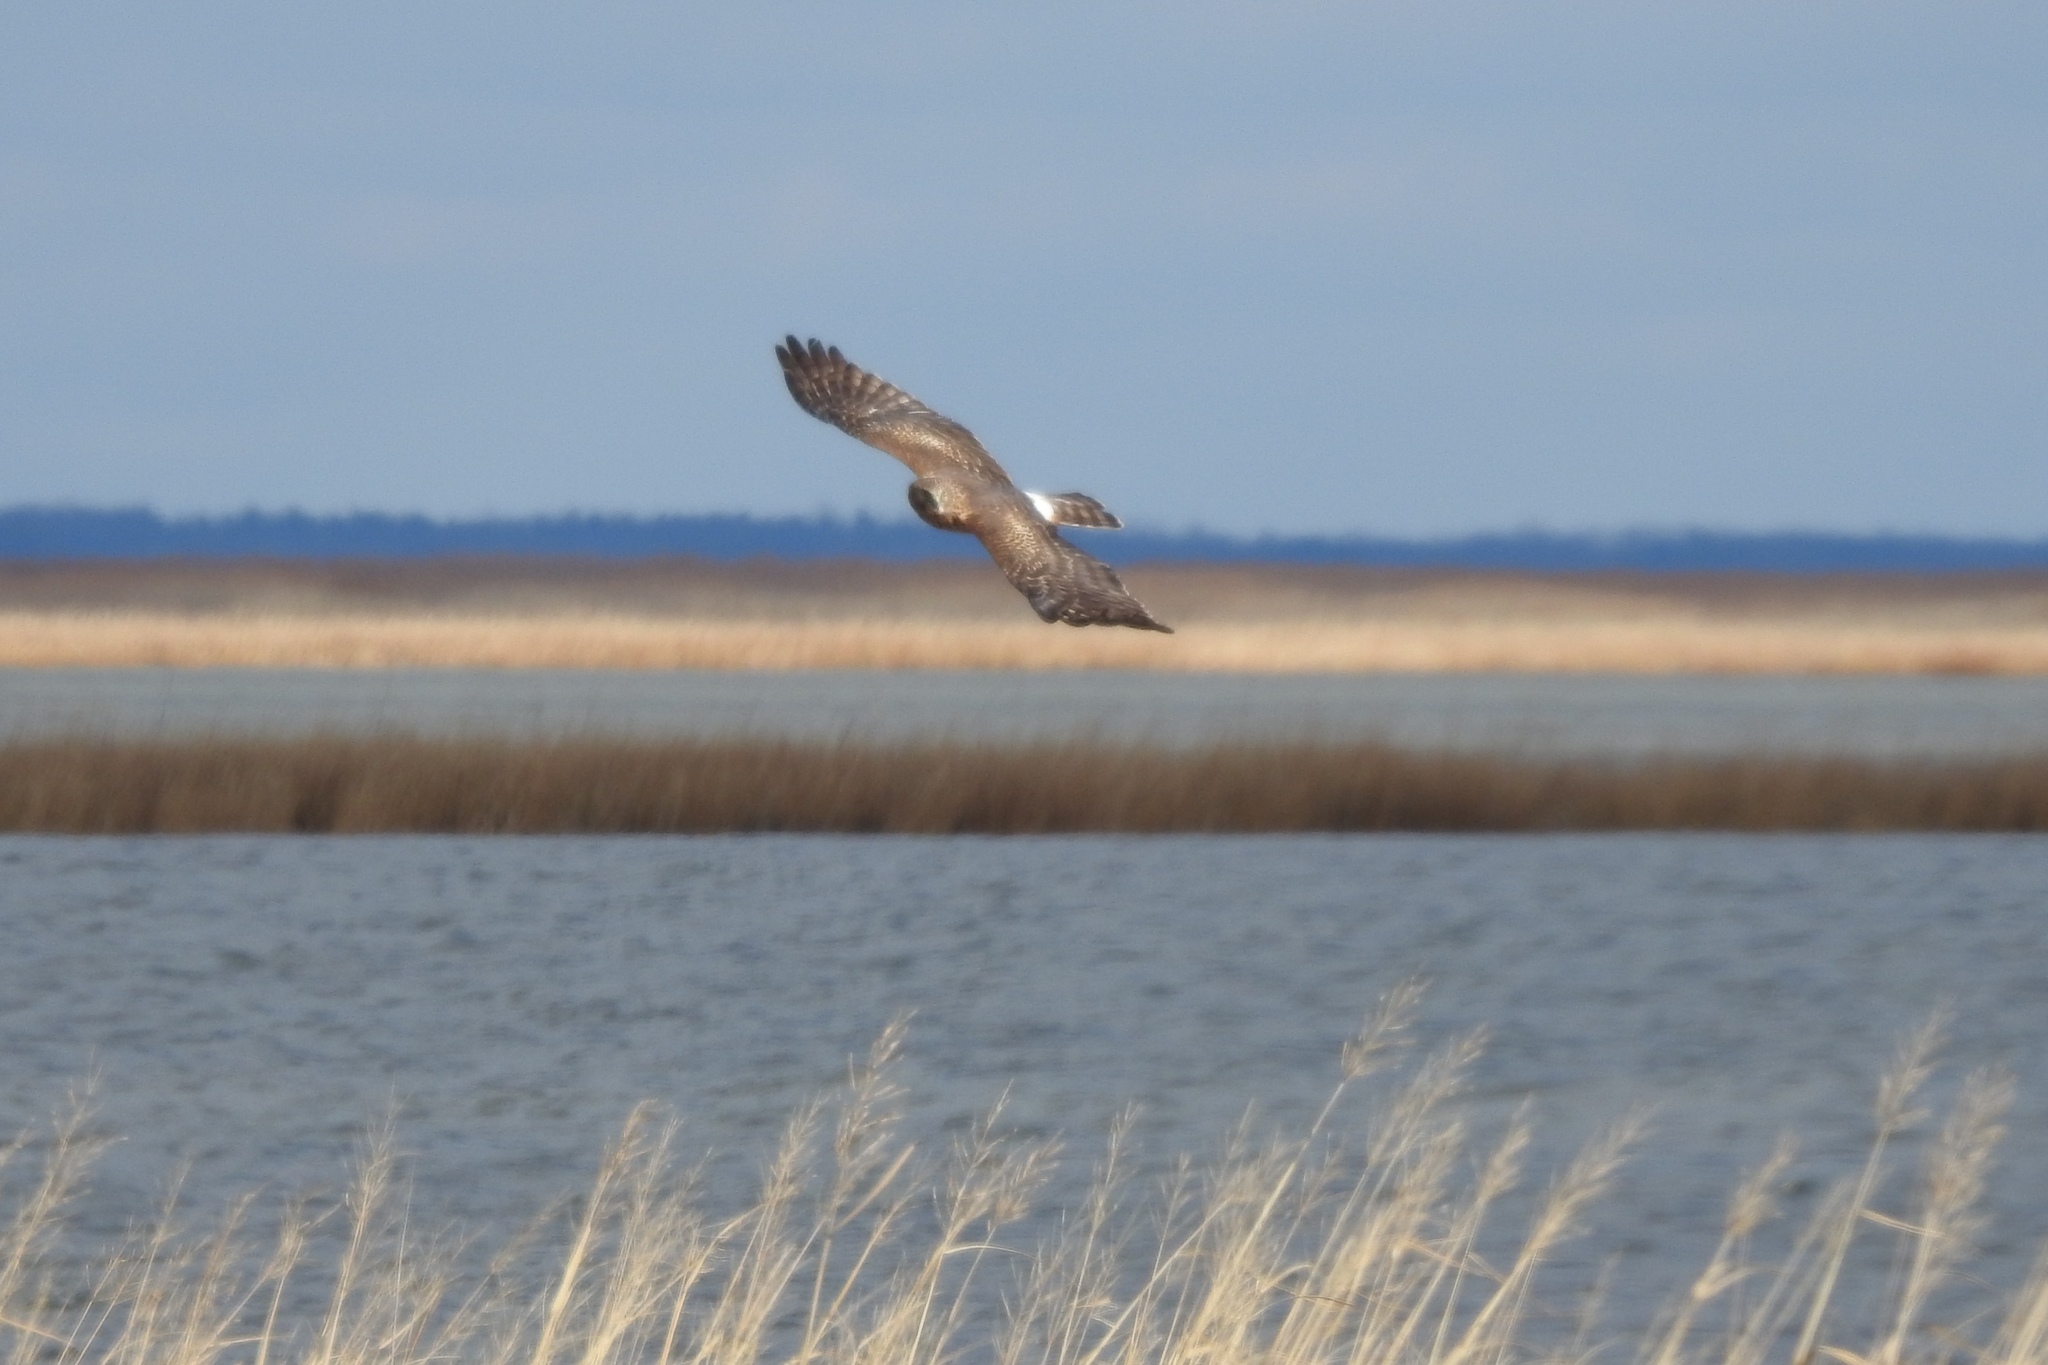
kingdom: Animalia
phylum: Chordata
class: Aves
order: Accipitriformes
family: Accipitridae
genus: Circus
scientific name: Circus cyaneus
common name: Hen harrier
